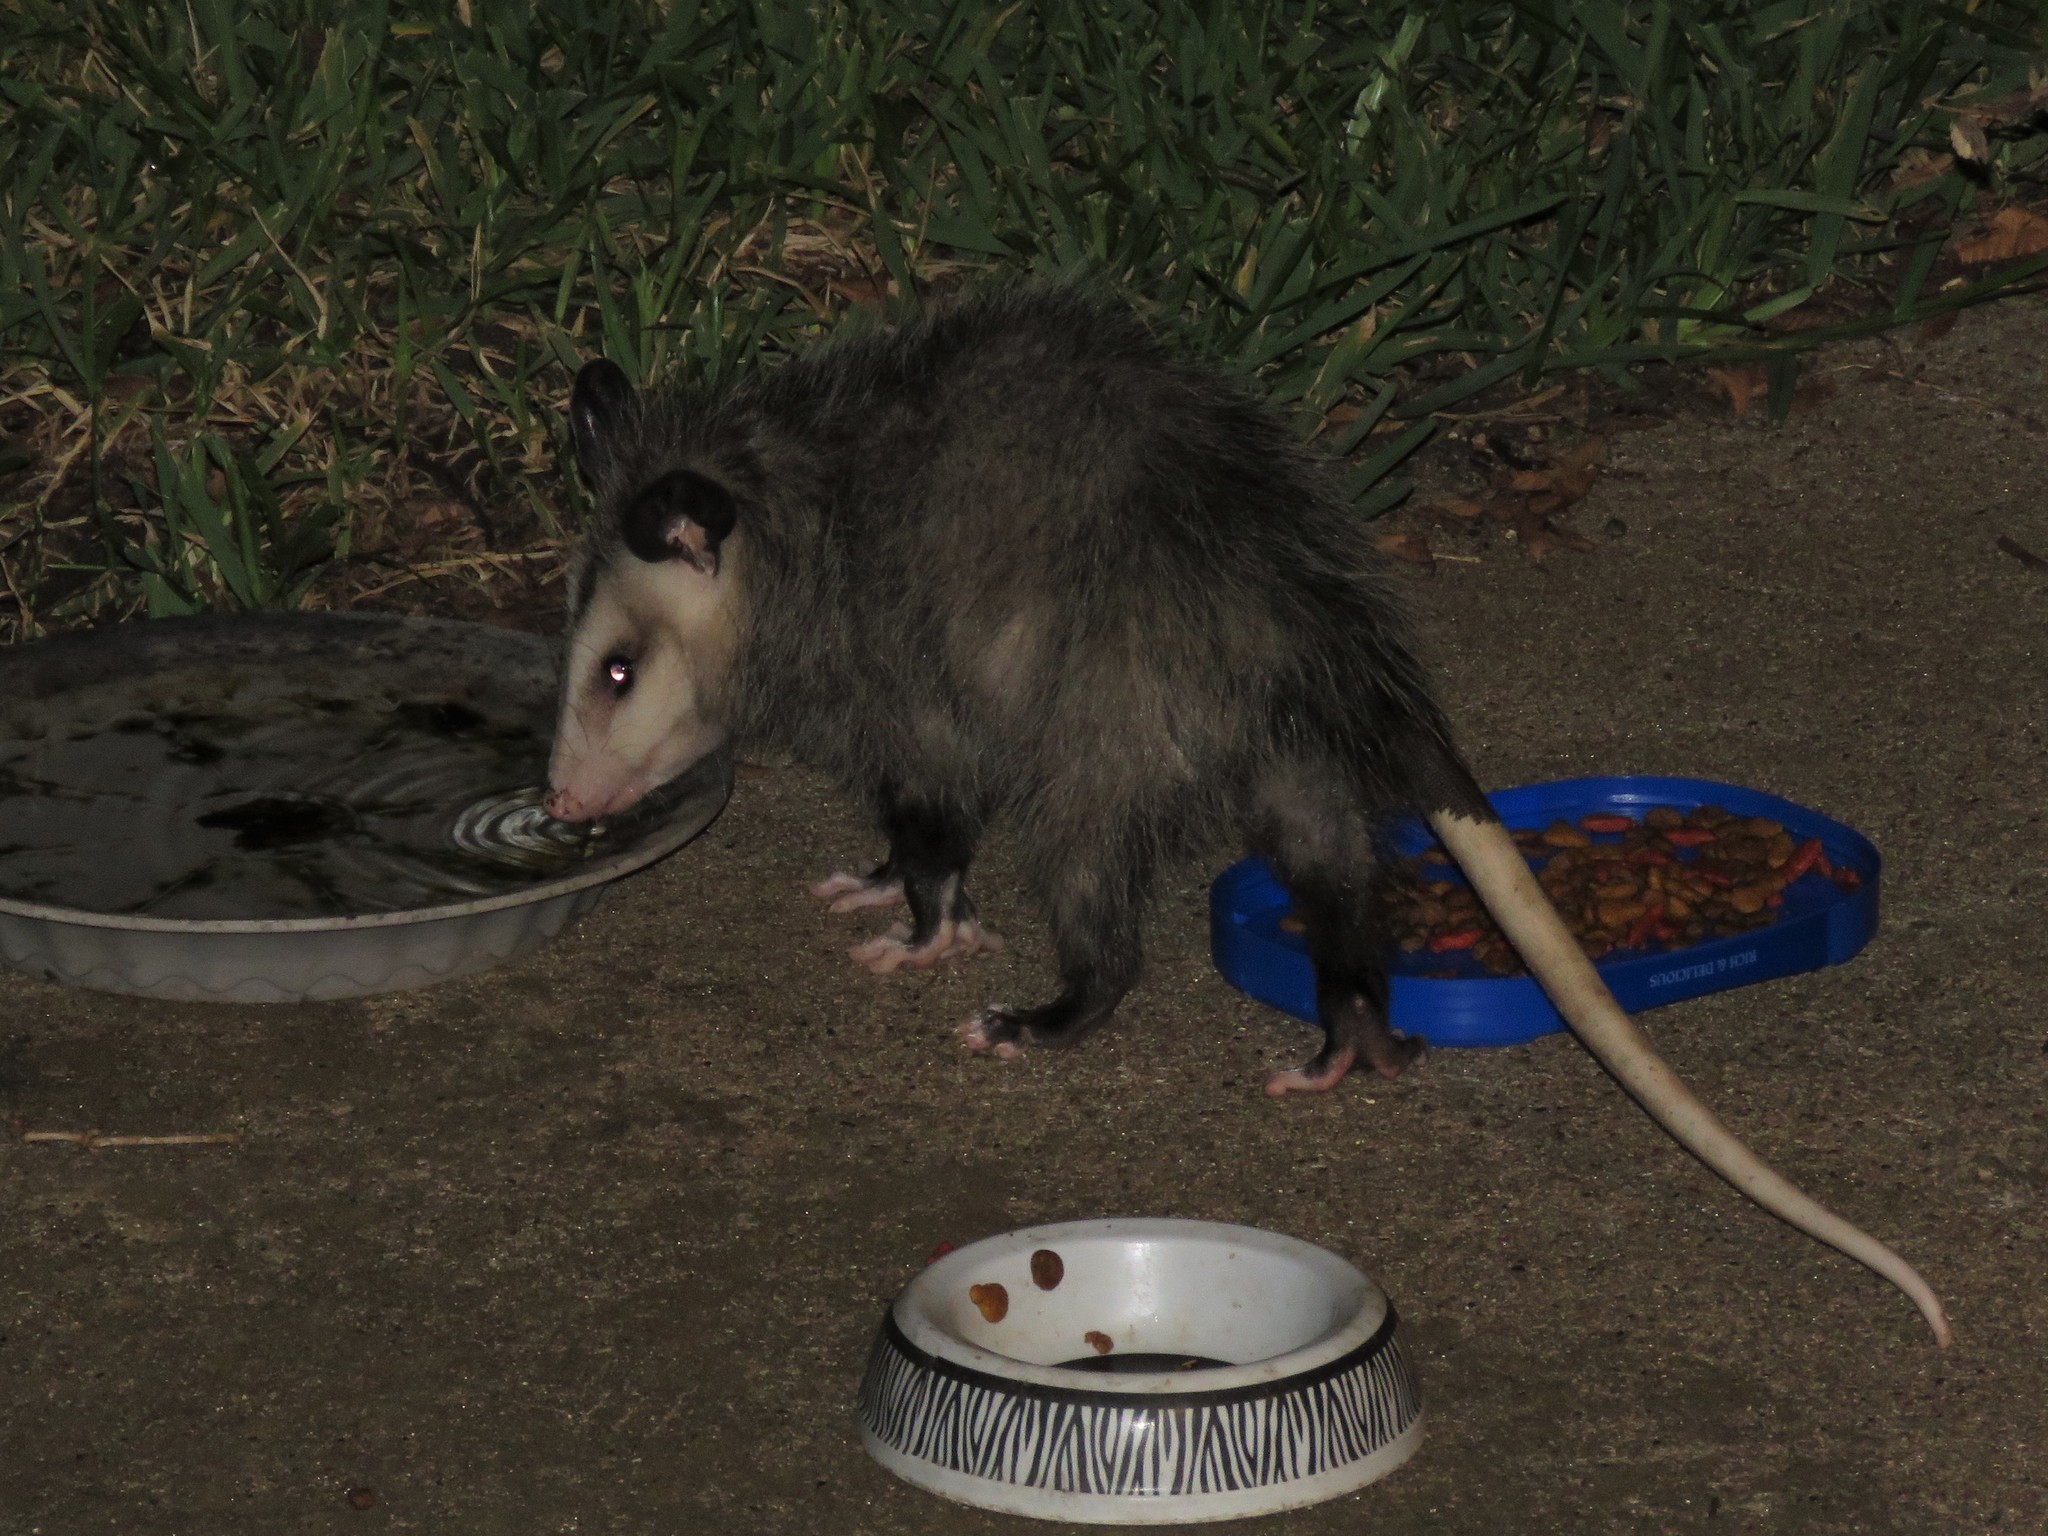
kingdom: Animalia
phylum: Chordata
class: Mammalia
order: Didelphimorphia
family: Didelphidae
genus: Didelphis
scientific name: Didelphis virginiana
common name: Virginia opossum
